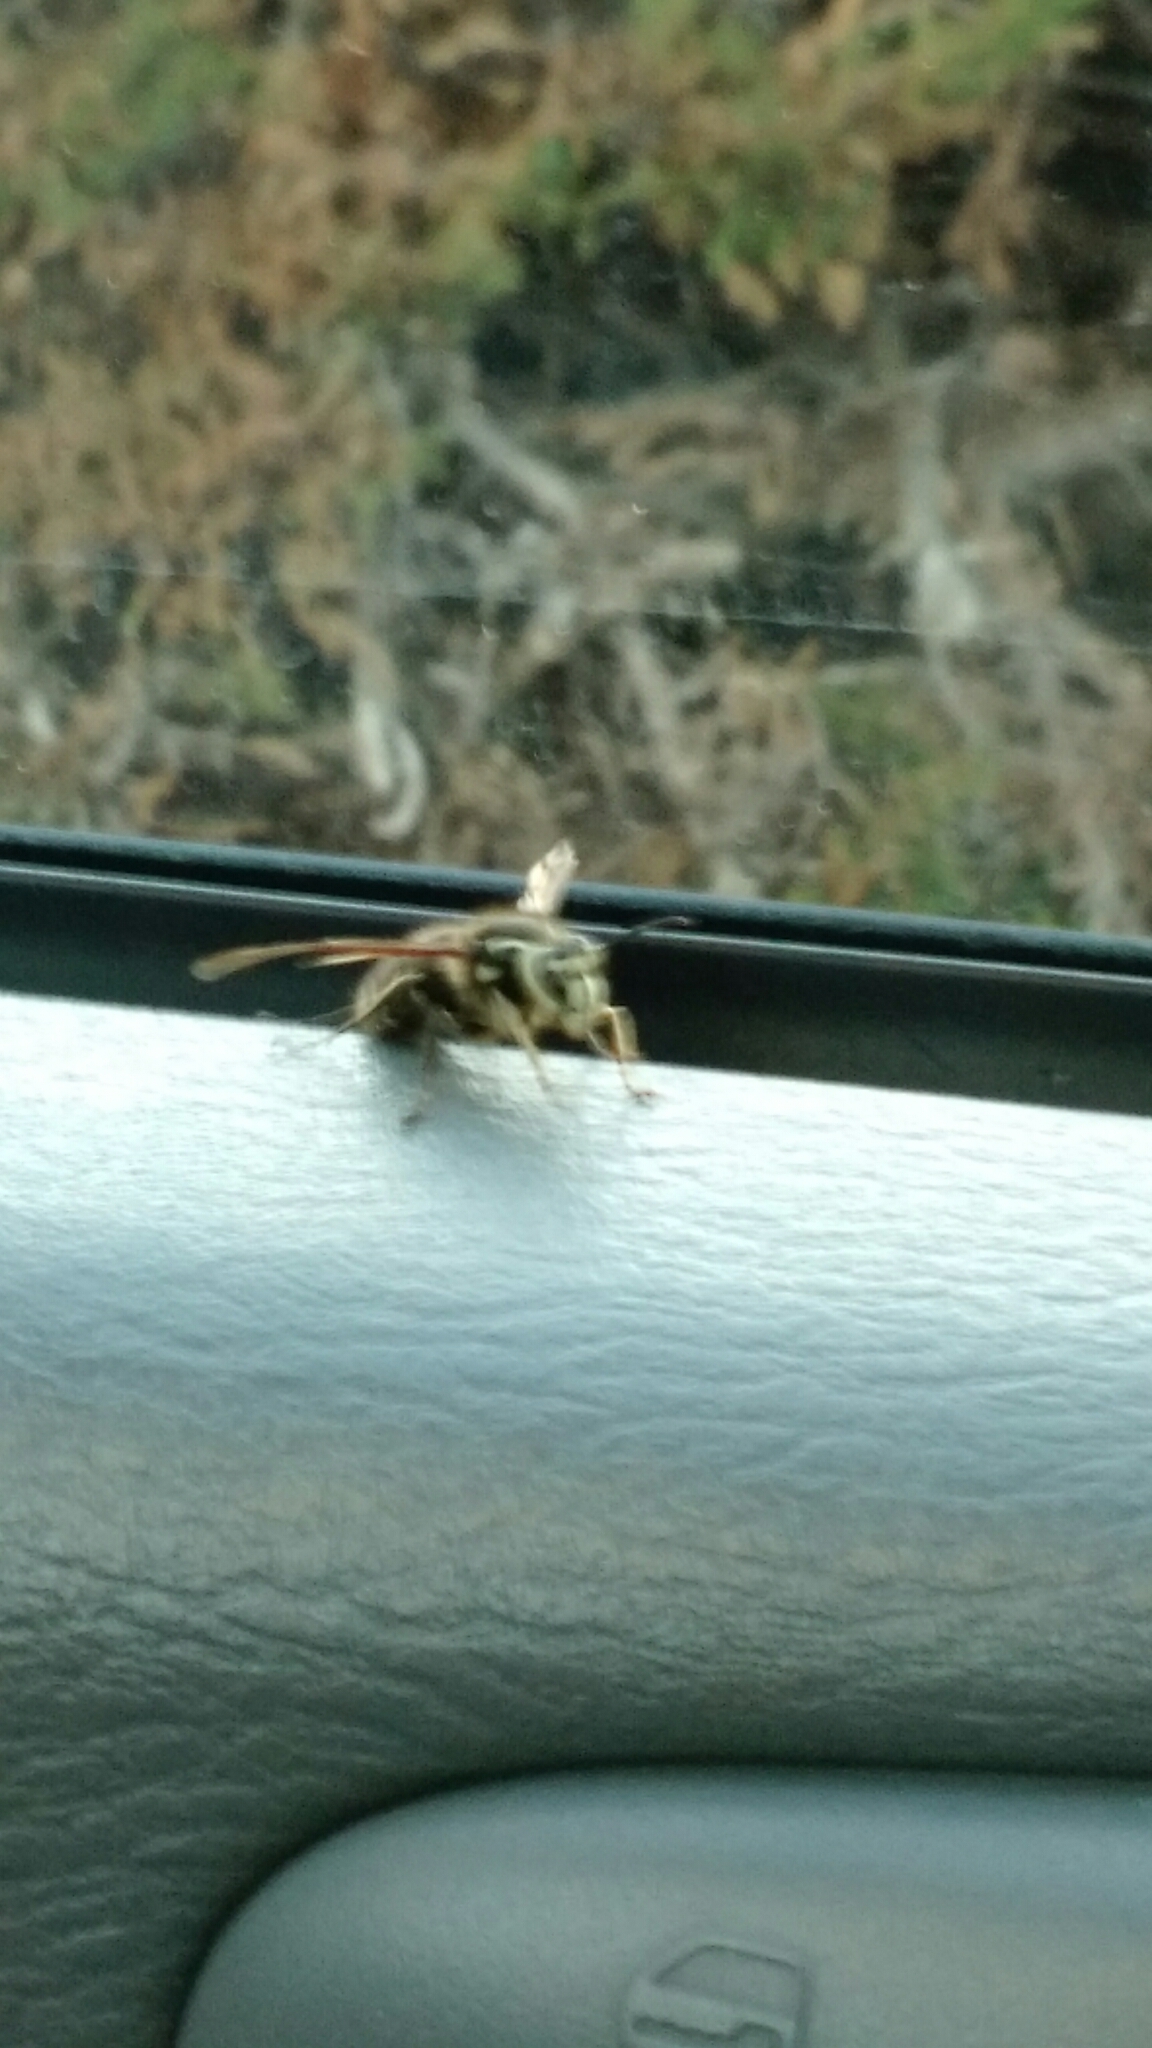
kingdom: Animalia
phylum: Arthropoda
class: Insecta
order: Hymenoptera
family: Vespidae
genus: Dolichovespula
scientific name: Dolichovespula maculata
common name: Bald-faced hornet
